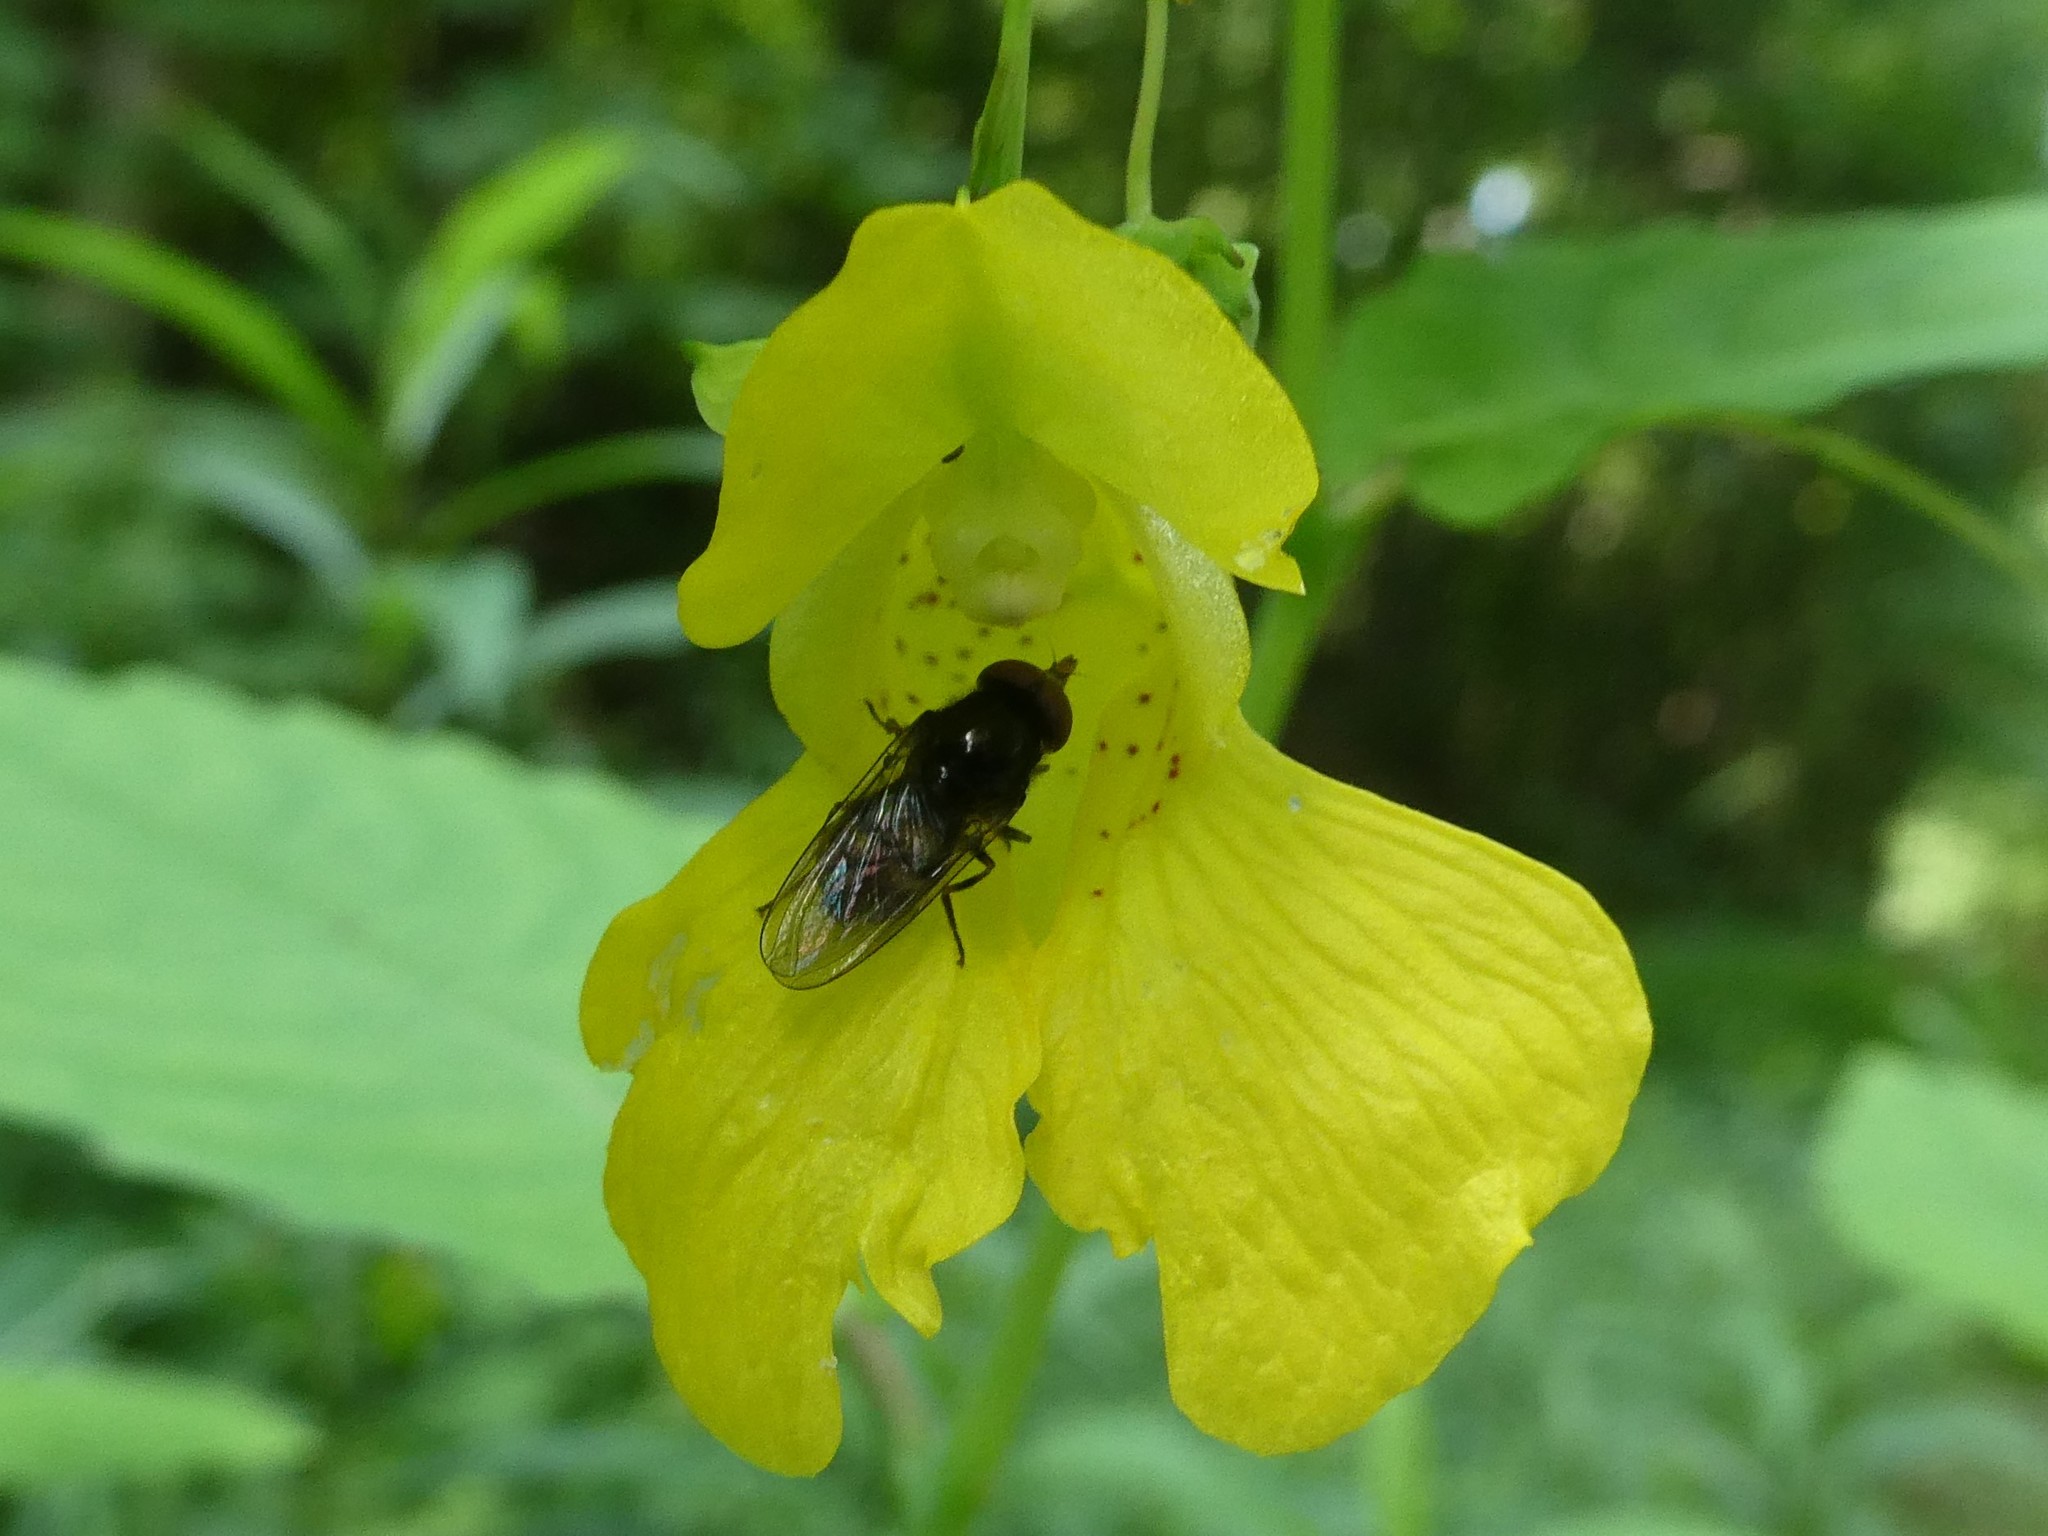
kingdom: Plantae
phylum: Tracheophyta
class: Magnoliopsida
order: Ericales
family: Balsaminaceae
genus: Impatiens
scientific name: Impatiens pallida
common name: Pale snapweed
